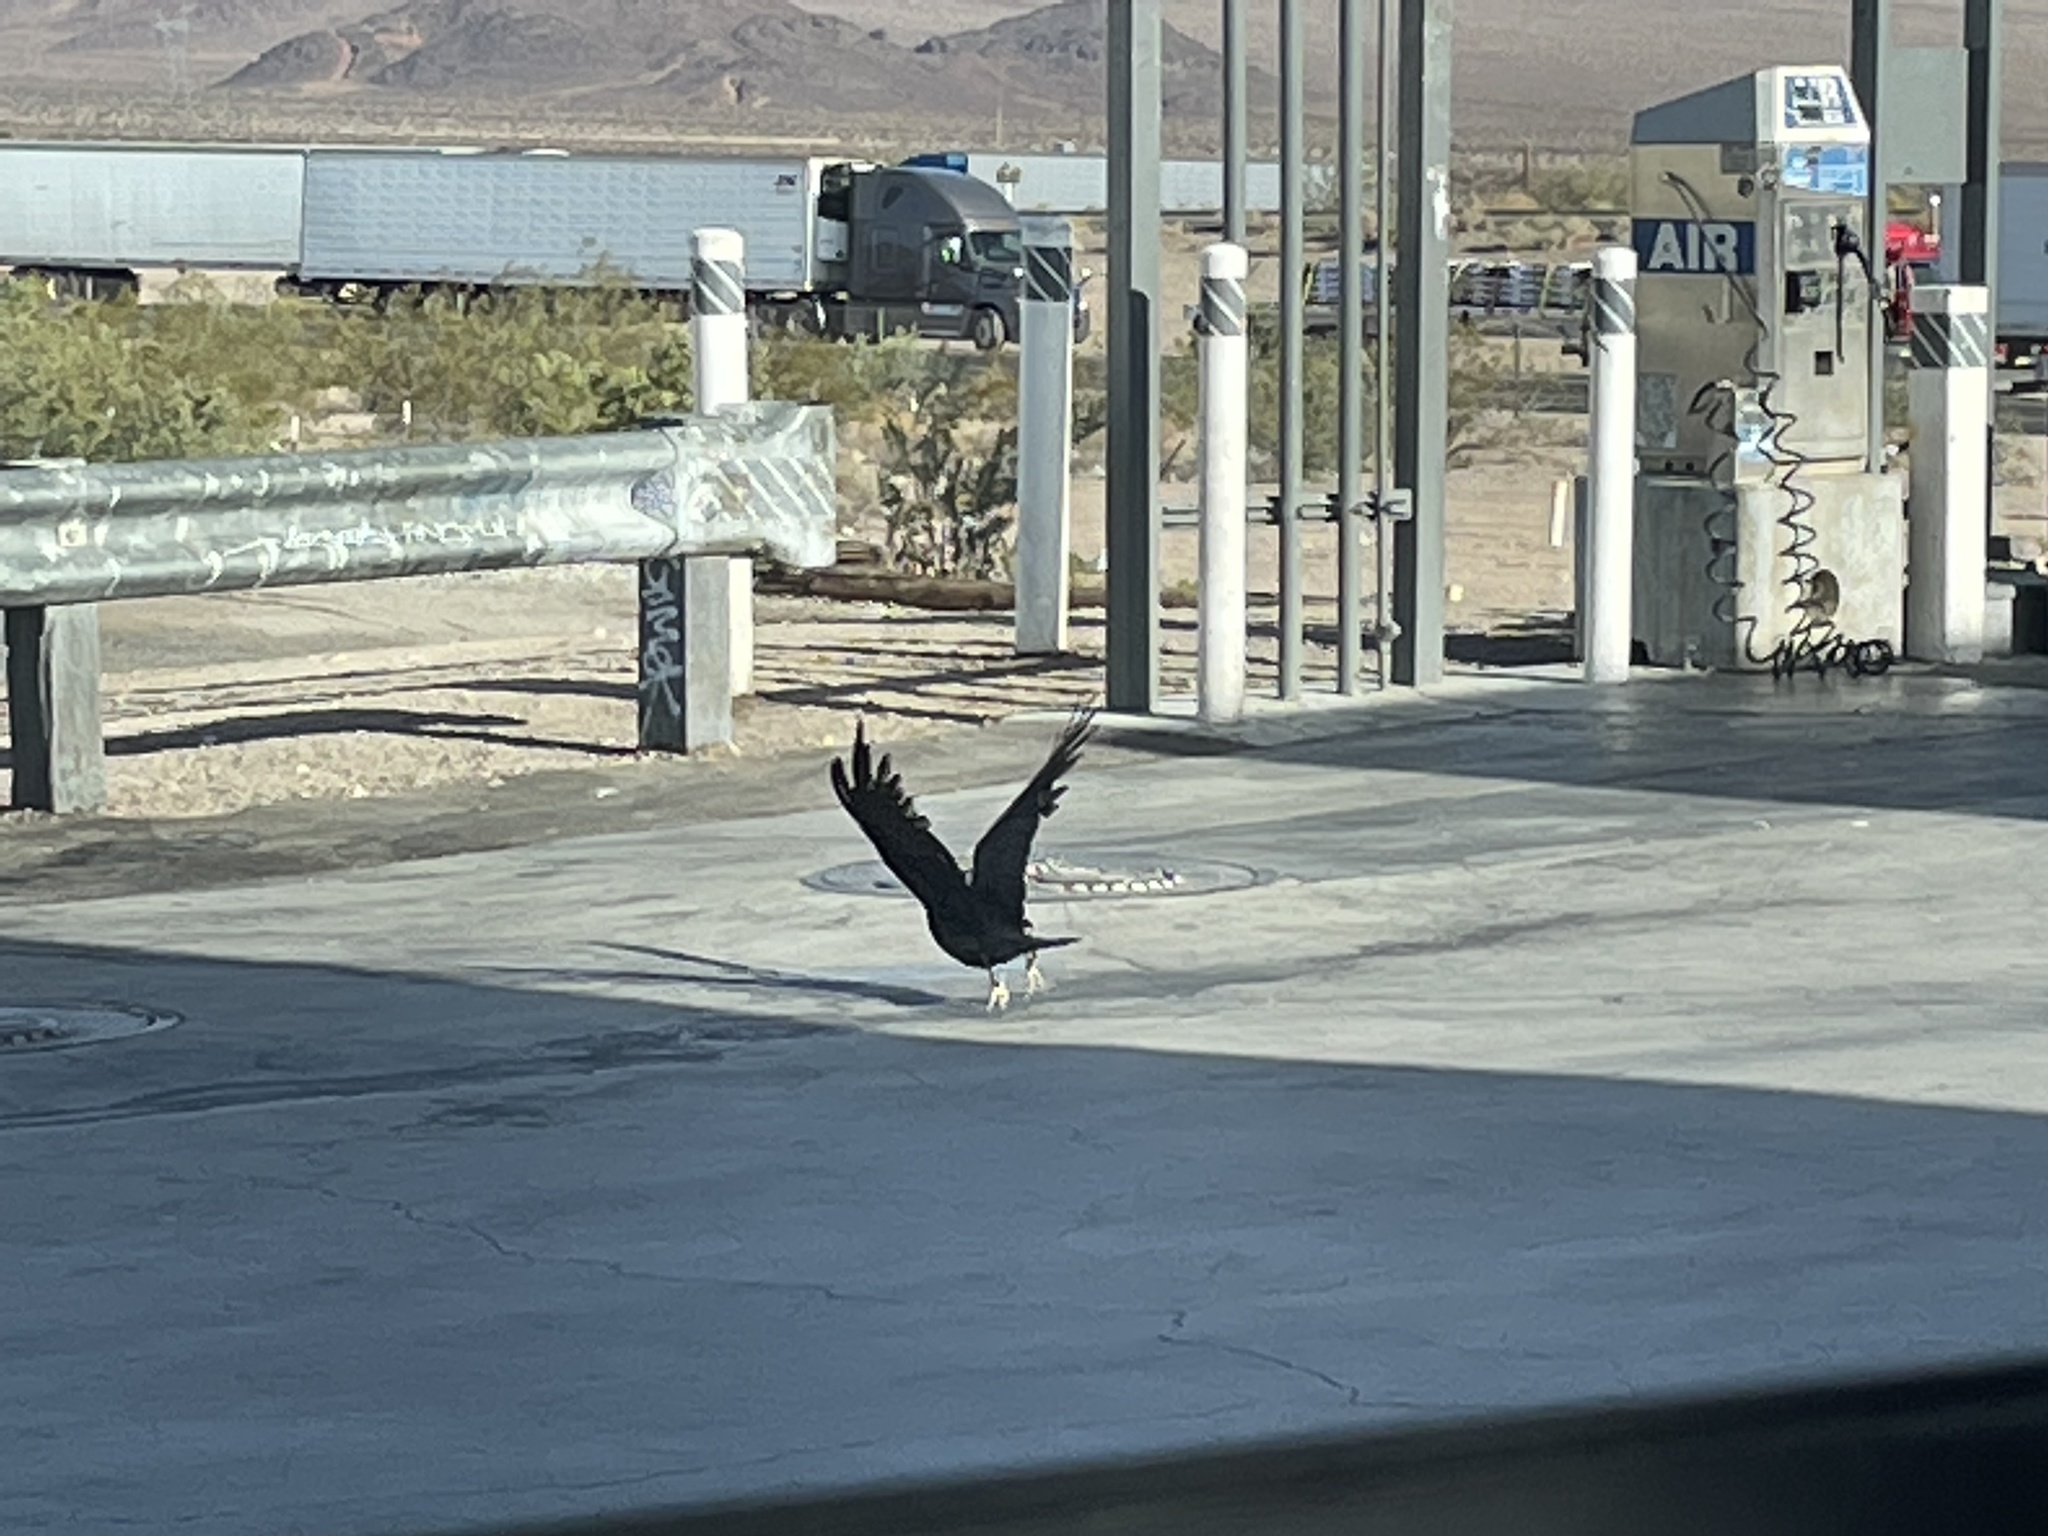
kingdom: Animalia
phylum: Chordata
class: Aves
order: Passeriformes
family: Corvidae
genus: Corvus
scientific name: Corvus corax
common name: Common raven
